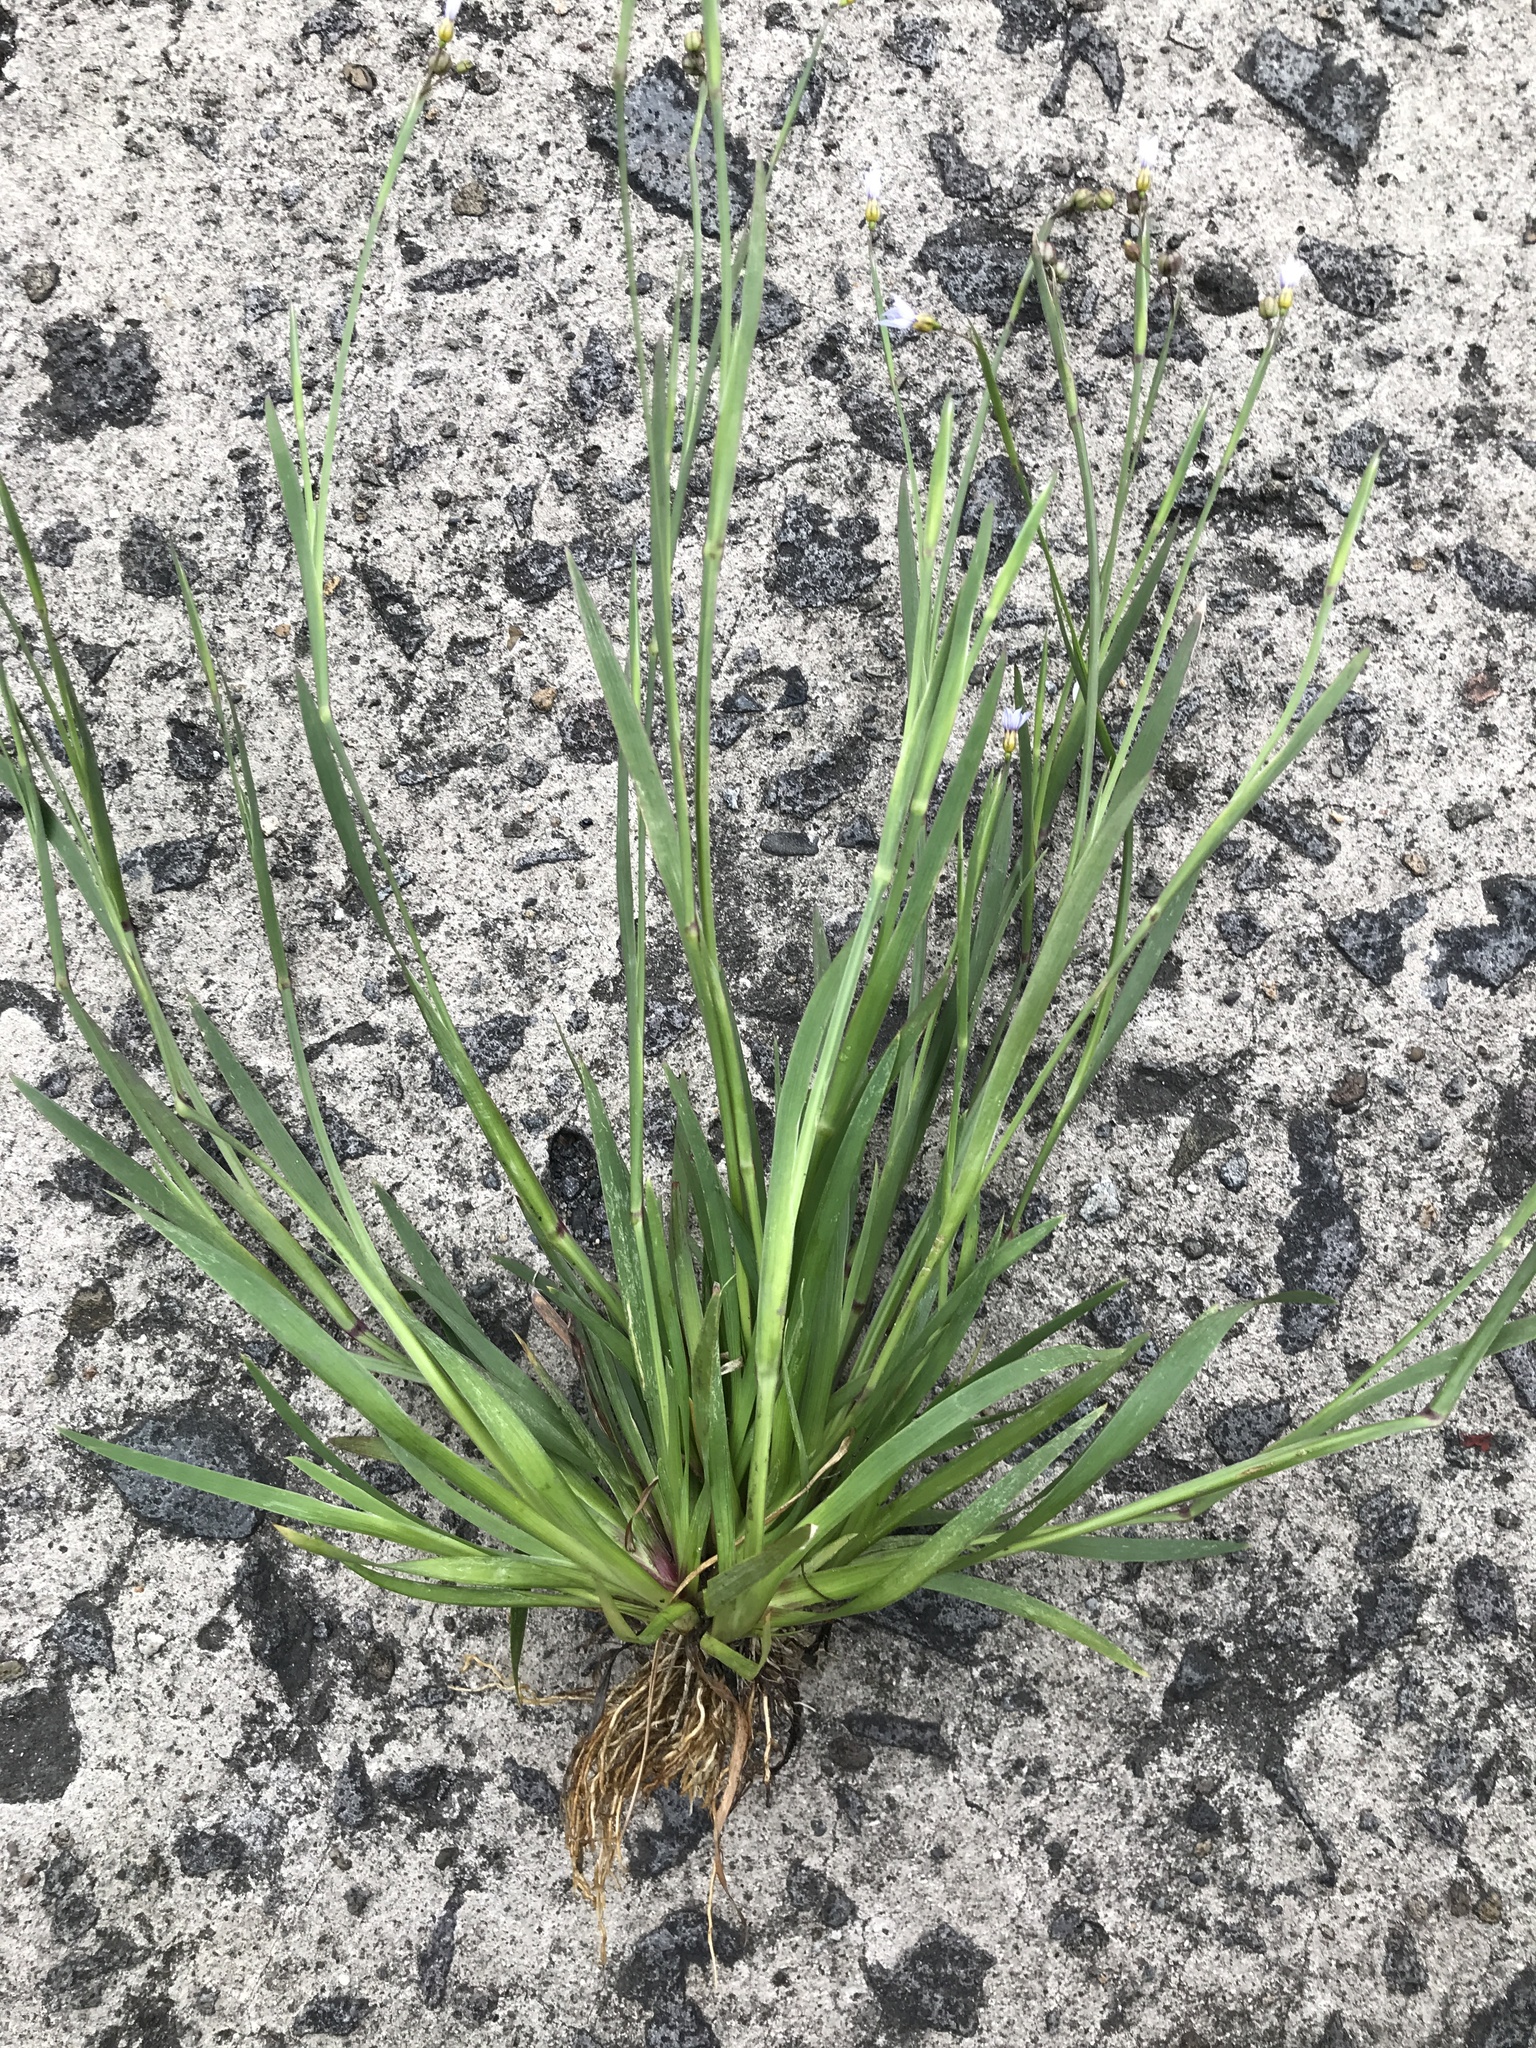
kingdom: Plantae
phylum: Tracheophyta
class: Liliopsida
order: Asparagales
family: Iridaceae
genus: Sisyrinchium
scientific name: Sisyrinchium micranthum
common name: Bermuda pigroot
